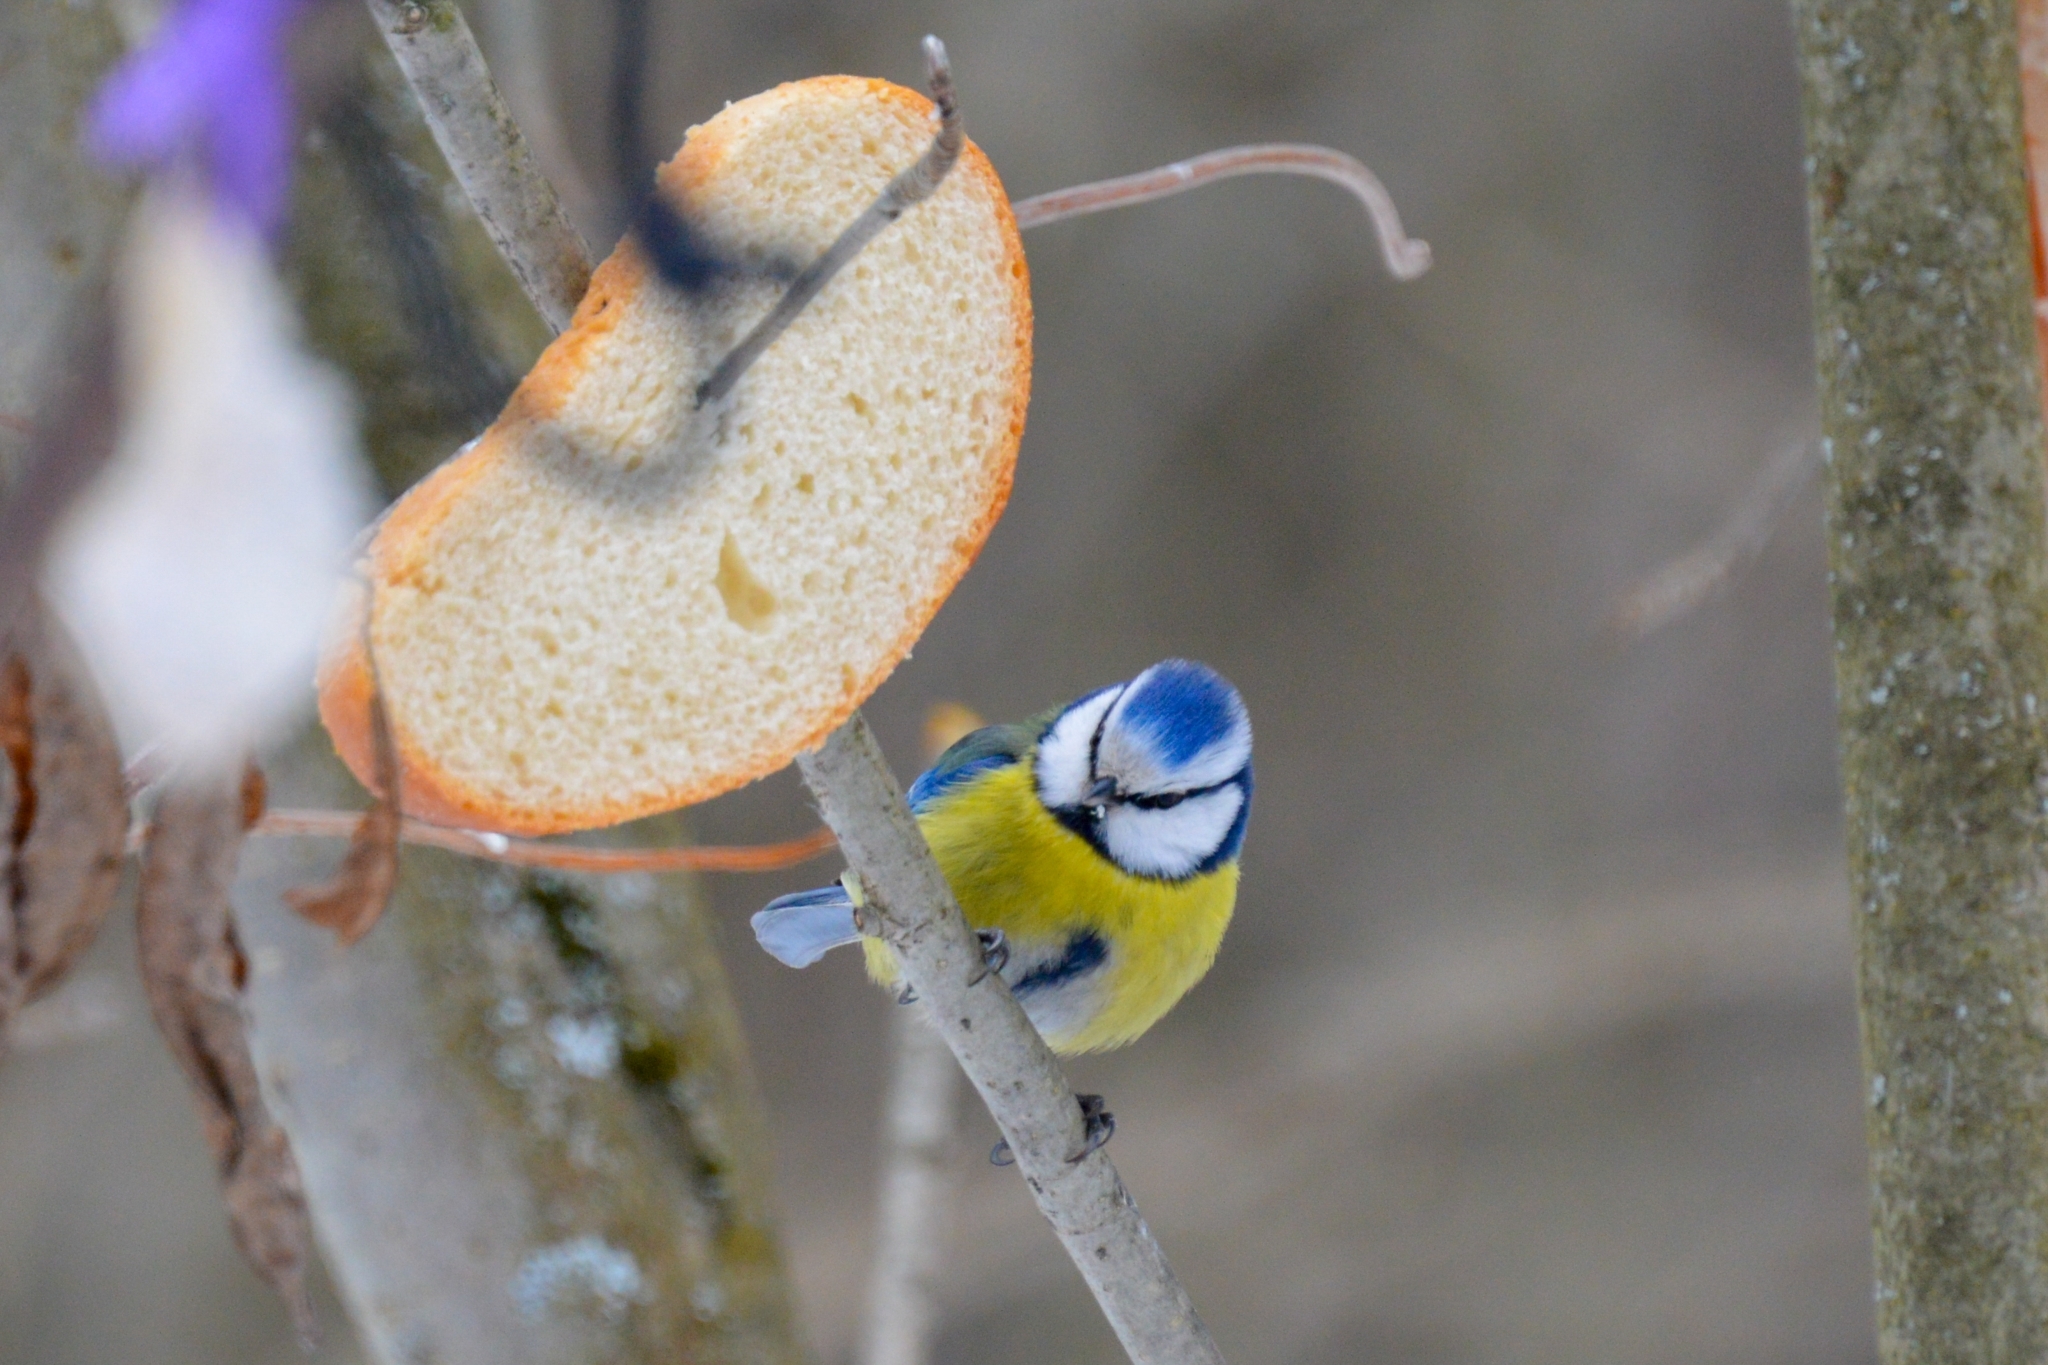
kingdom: Animalia
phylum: Chordata
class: Aves
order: Passeriformes
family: Paridae
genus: Cyanistes
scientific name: Cyanistes caeruleus
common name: Eurasian blue tit
